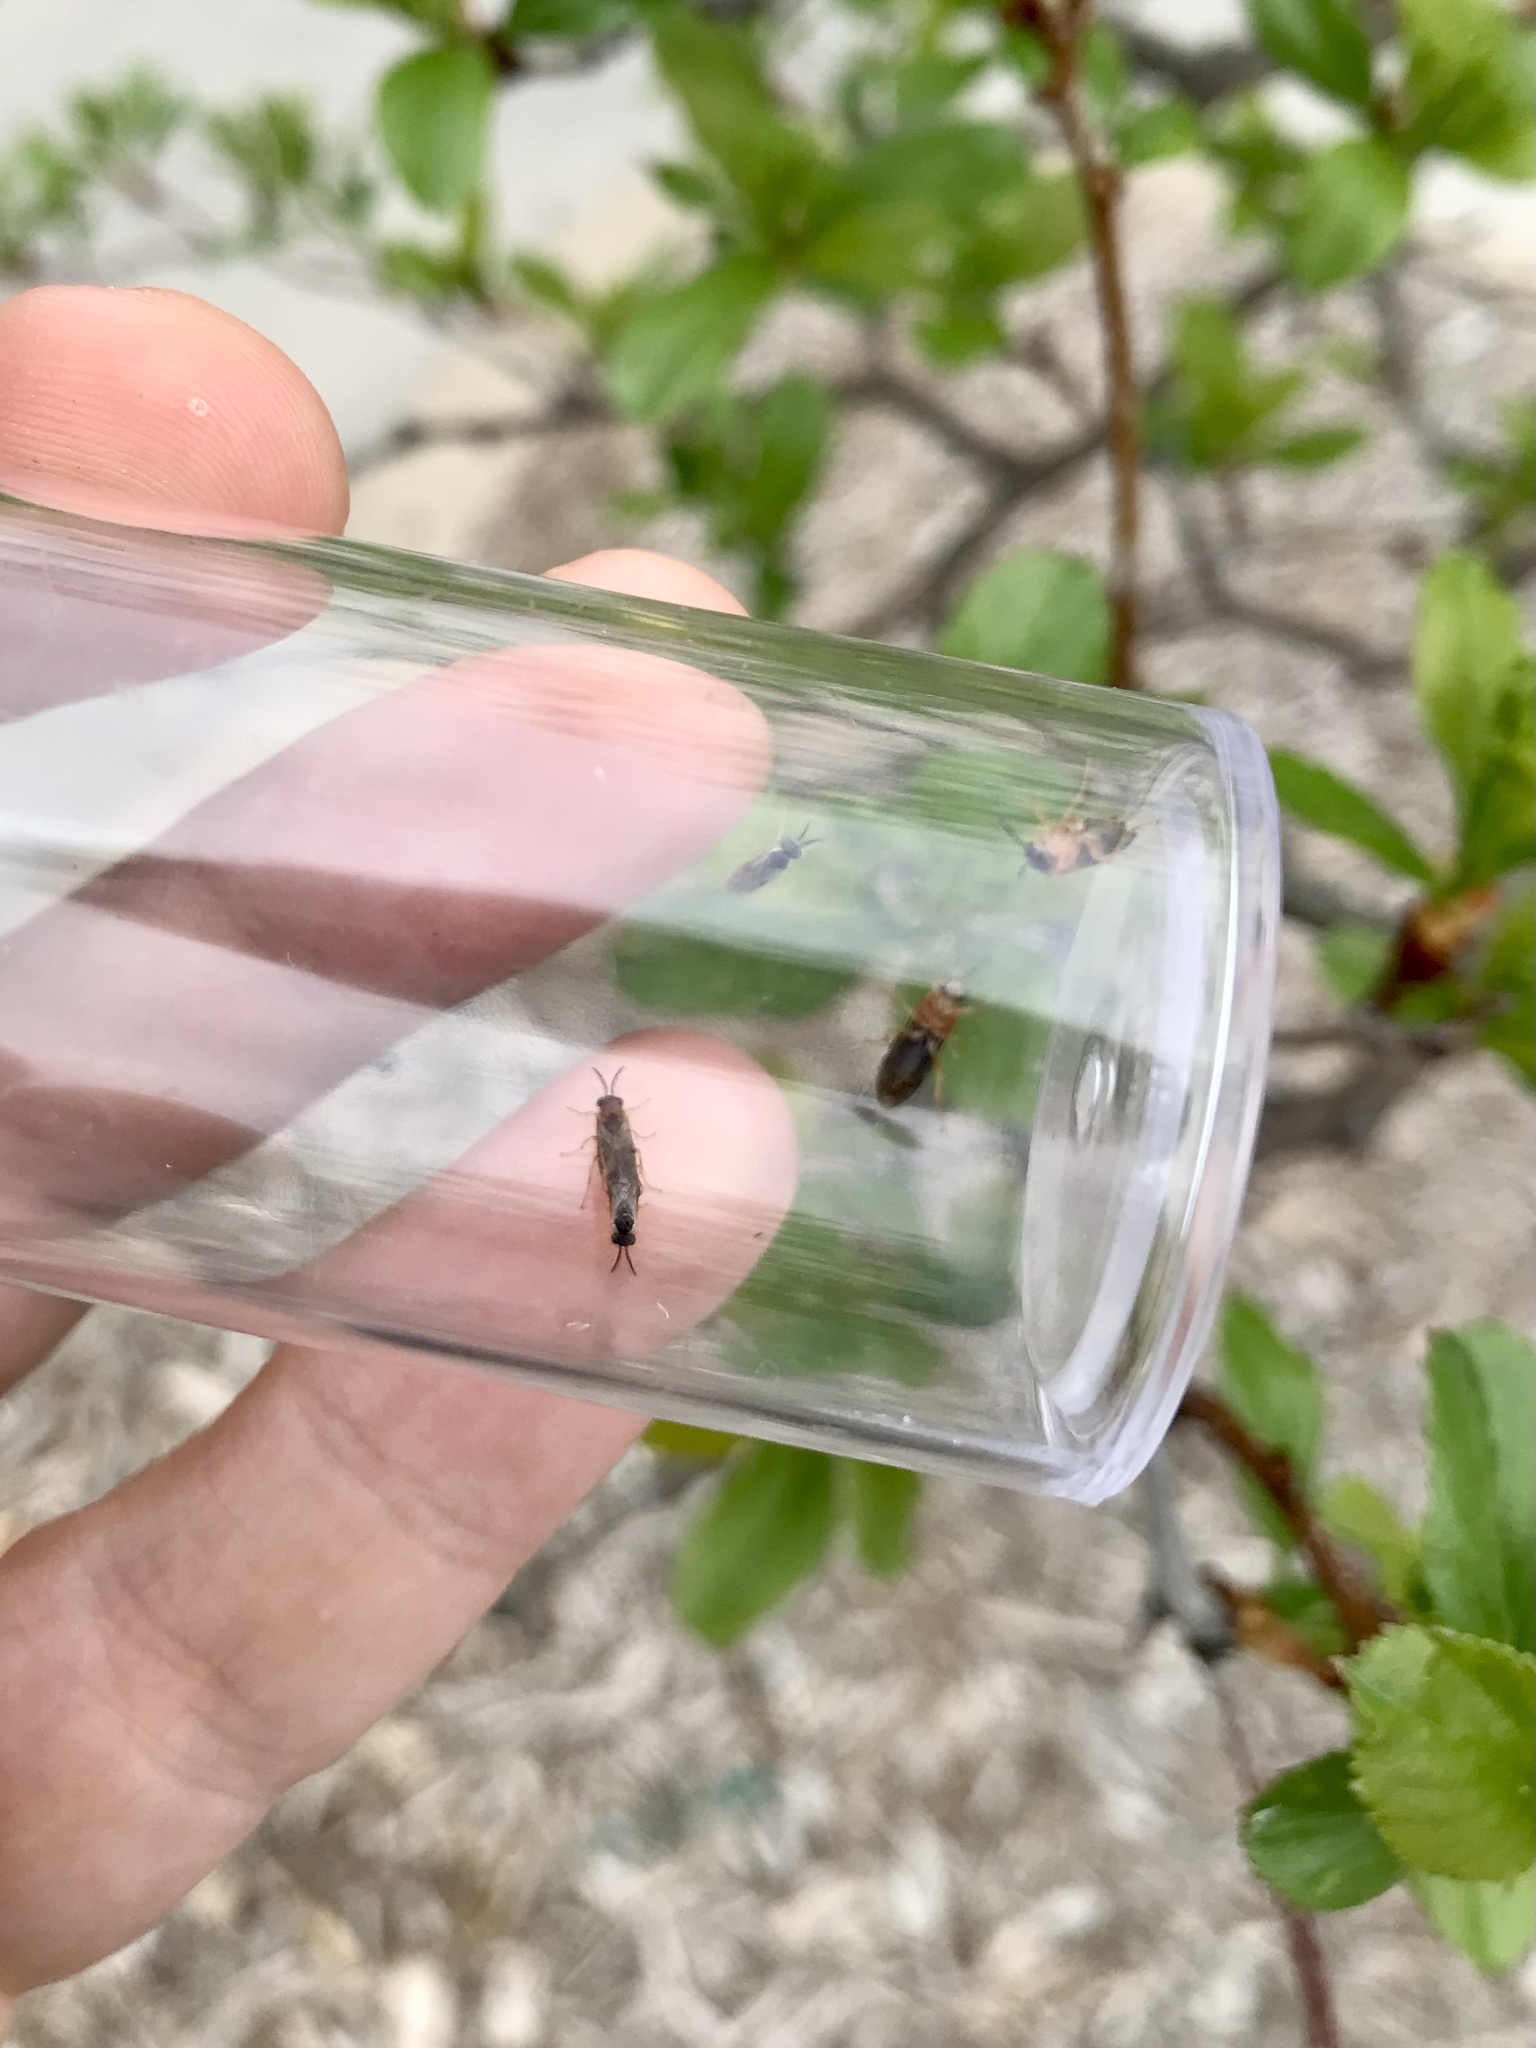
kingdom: Animalia
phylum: Arthropoda
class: Insecta
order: Hymenoptera
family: Tenthredinidae
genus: Profenusa
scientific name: Profenusa
